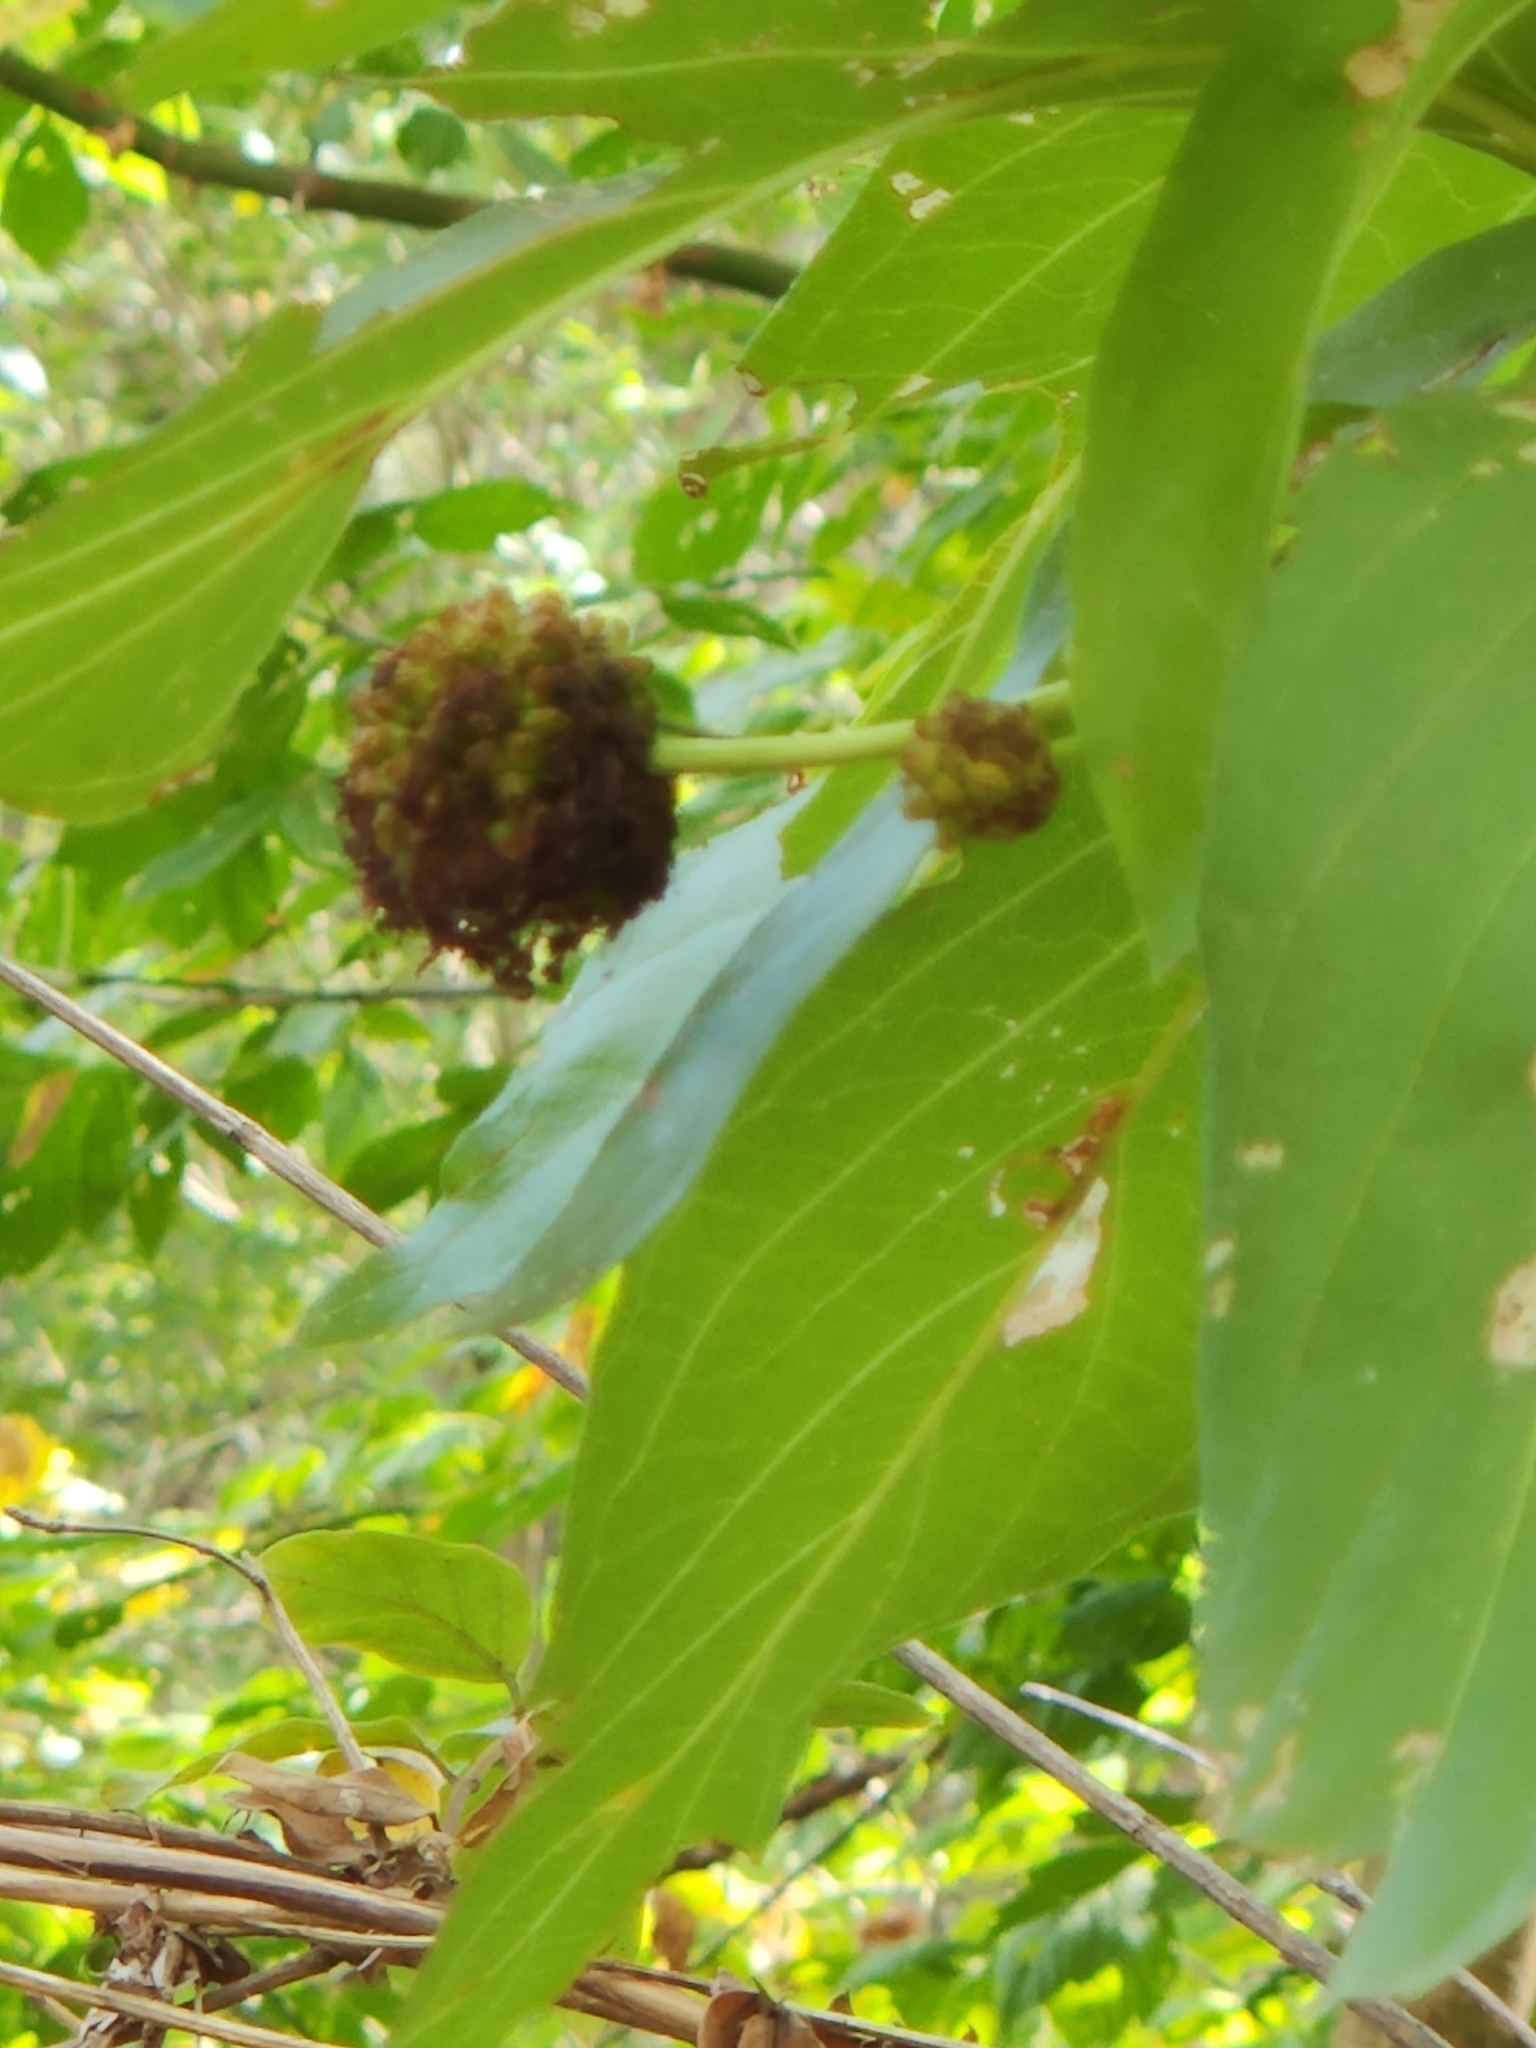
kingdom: Plantae
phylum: Tracheophyta
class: Magnoliopsida
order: Gentianales
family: Rubiaceae
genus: Cephalanthus
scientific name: Cephalanthus occidentalis
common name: Button-willow
